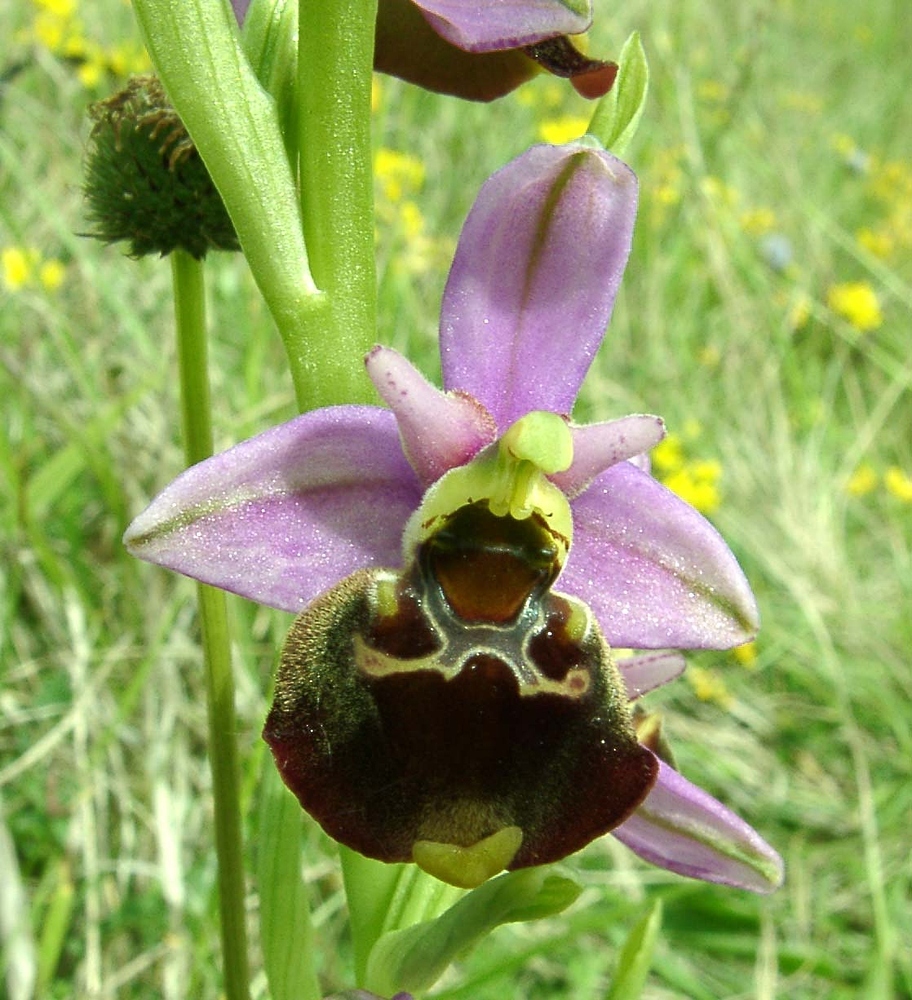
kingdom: Plantae
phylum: Tracheophyta
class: Liliopsida
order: Asparagales
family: Orchidaceae
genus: Ophrys
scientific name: Ophrys holosericea
